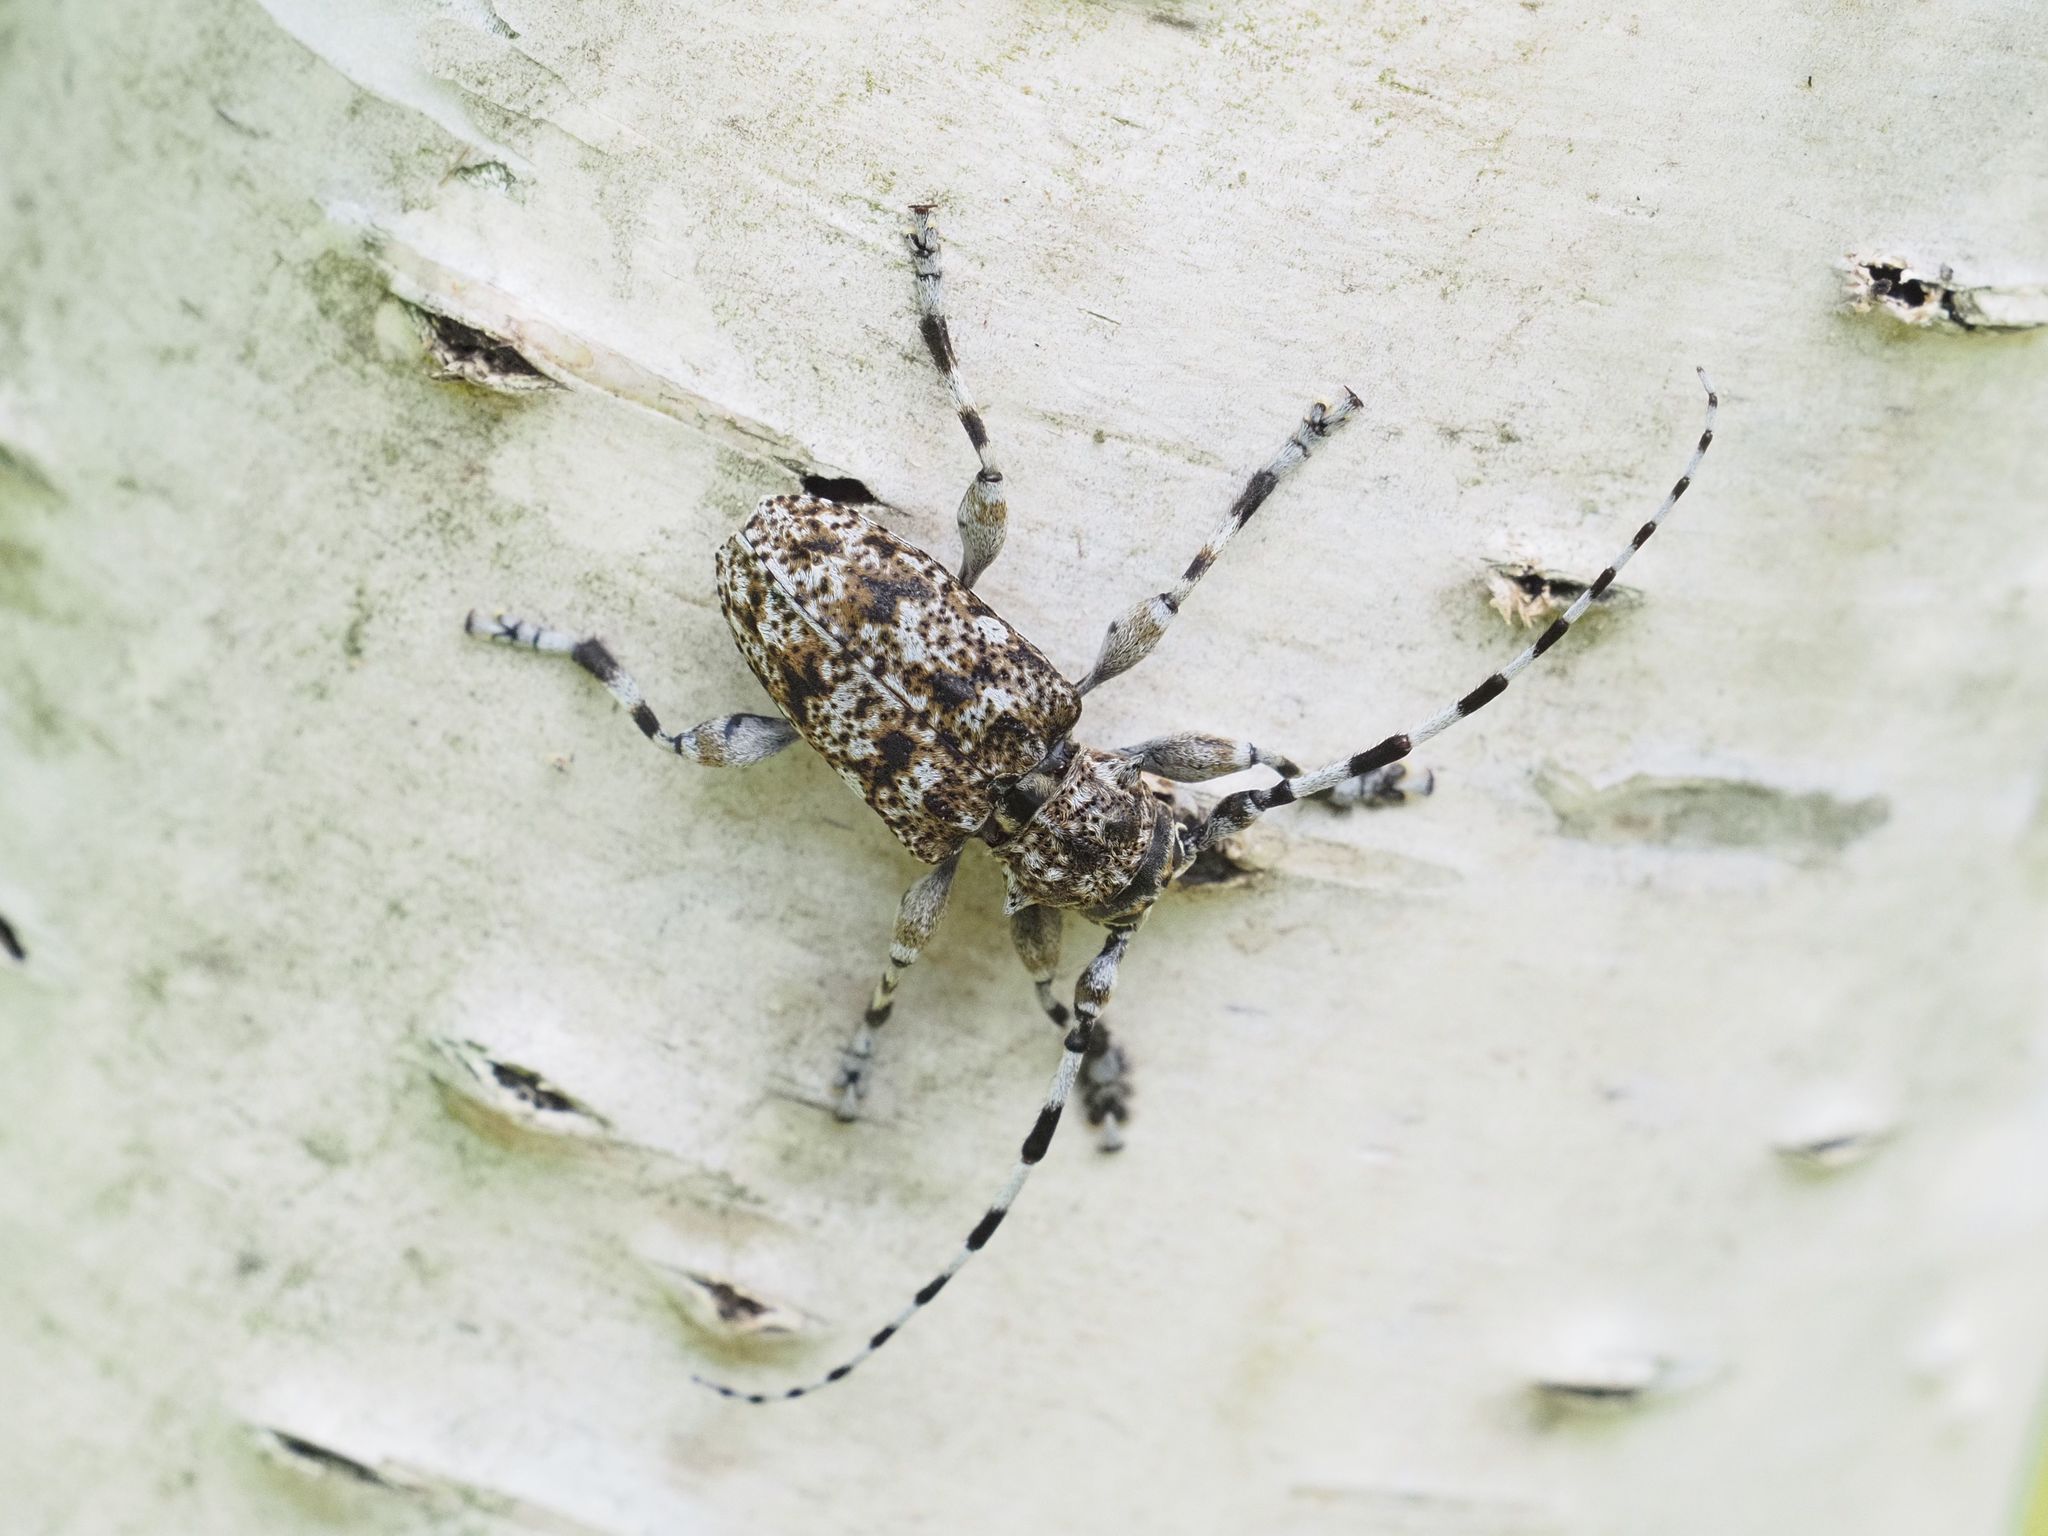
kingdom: Animalia
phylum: Arthropoda
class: Insecta
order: Coleoptera
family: Cerambycidae
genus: Aegomorphus
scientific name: Aegomorphus clavipes
